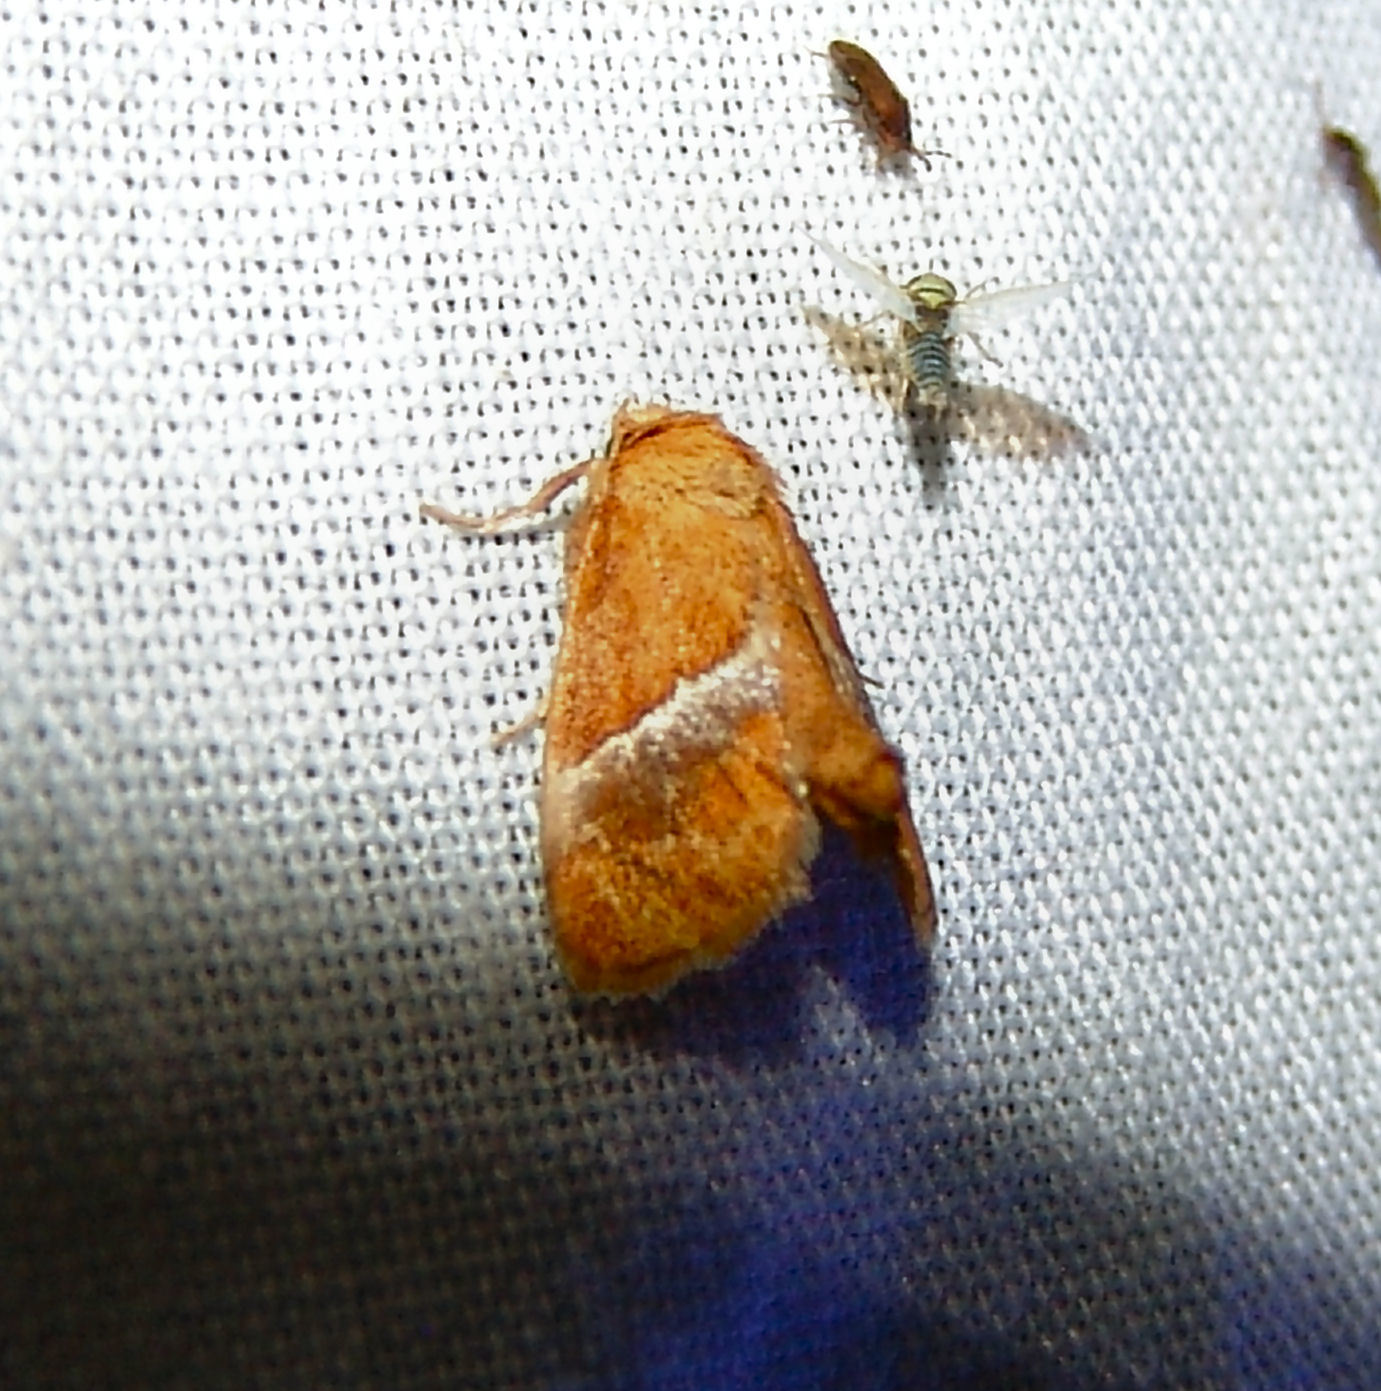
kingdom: Animalia
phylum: Arthropoda
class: Insecta
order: Lepidoptera
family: Limacodidae
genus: Lithacodes
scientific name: Lithacodes fasciola
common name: Yellow-shouldered slug moth
